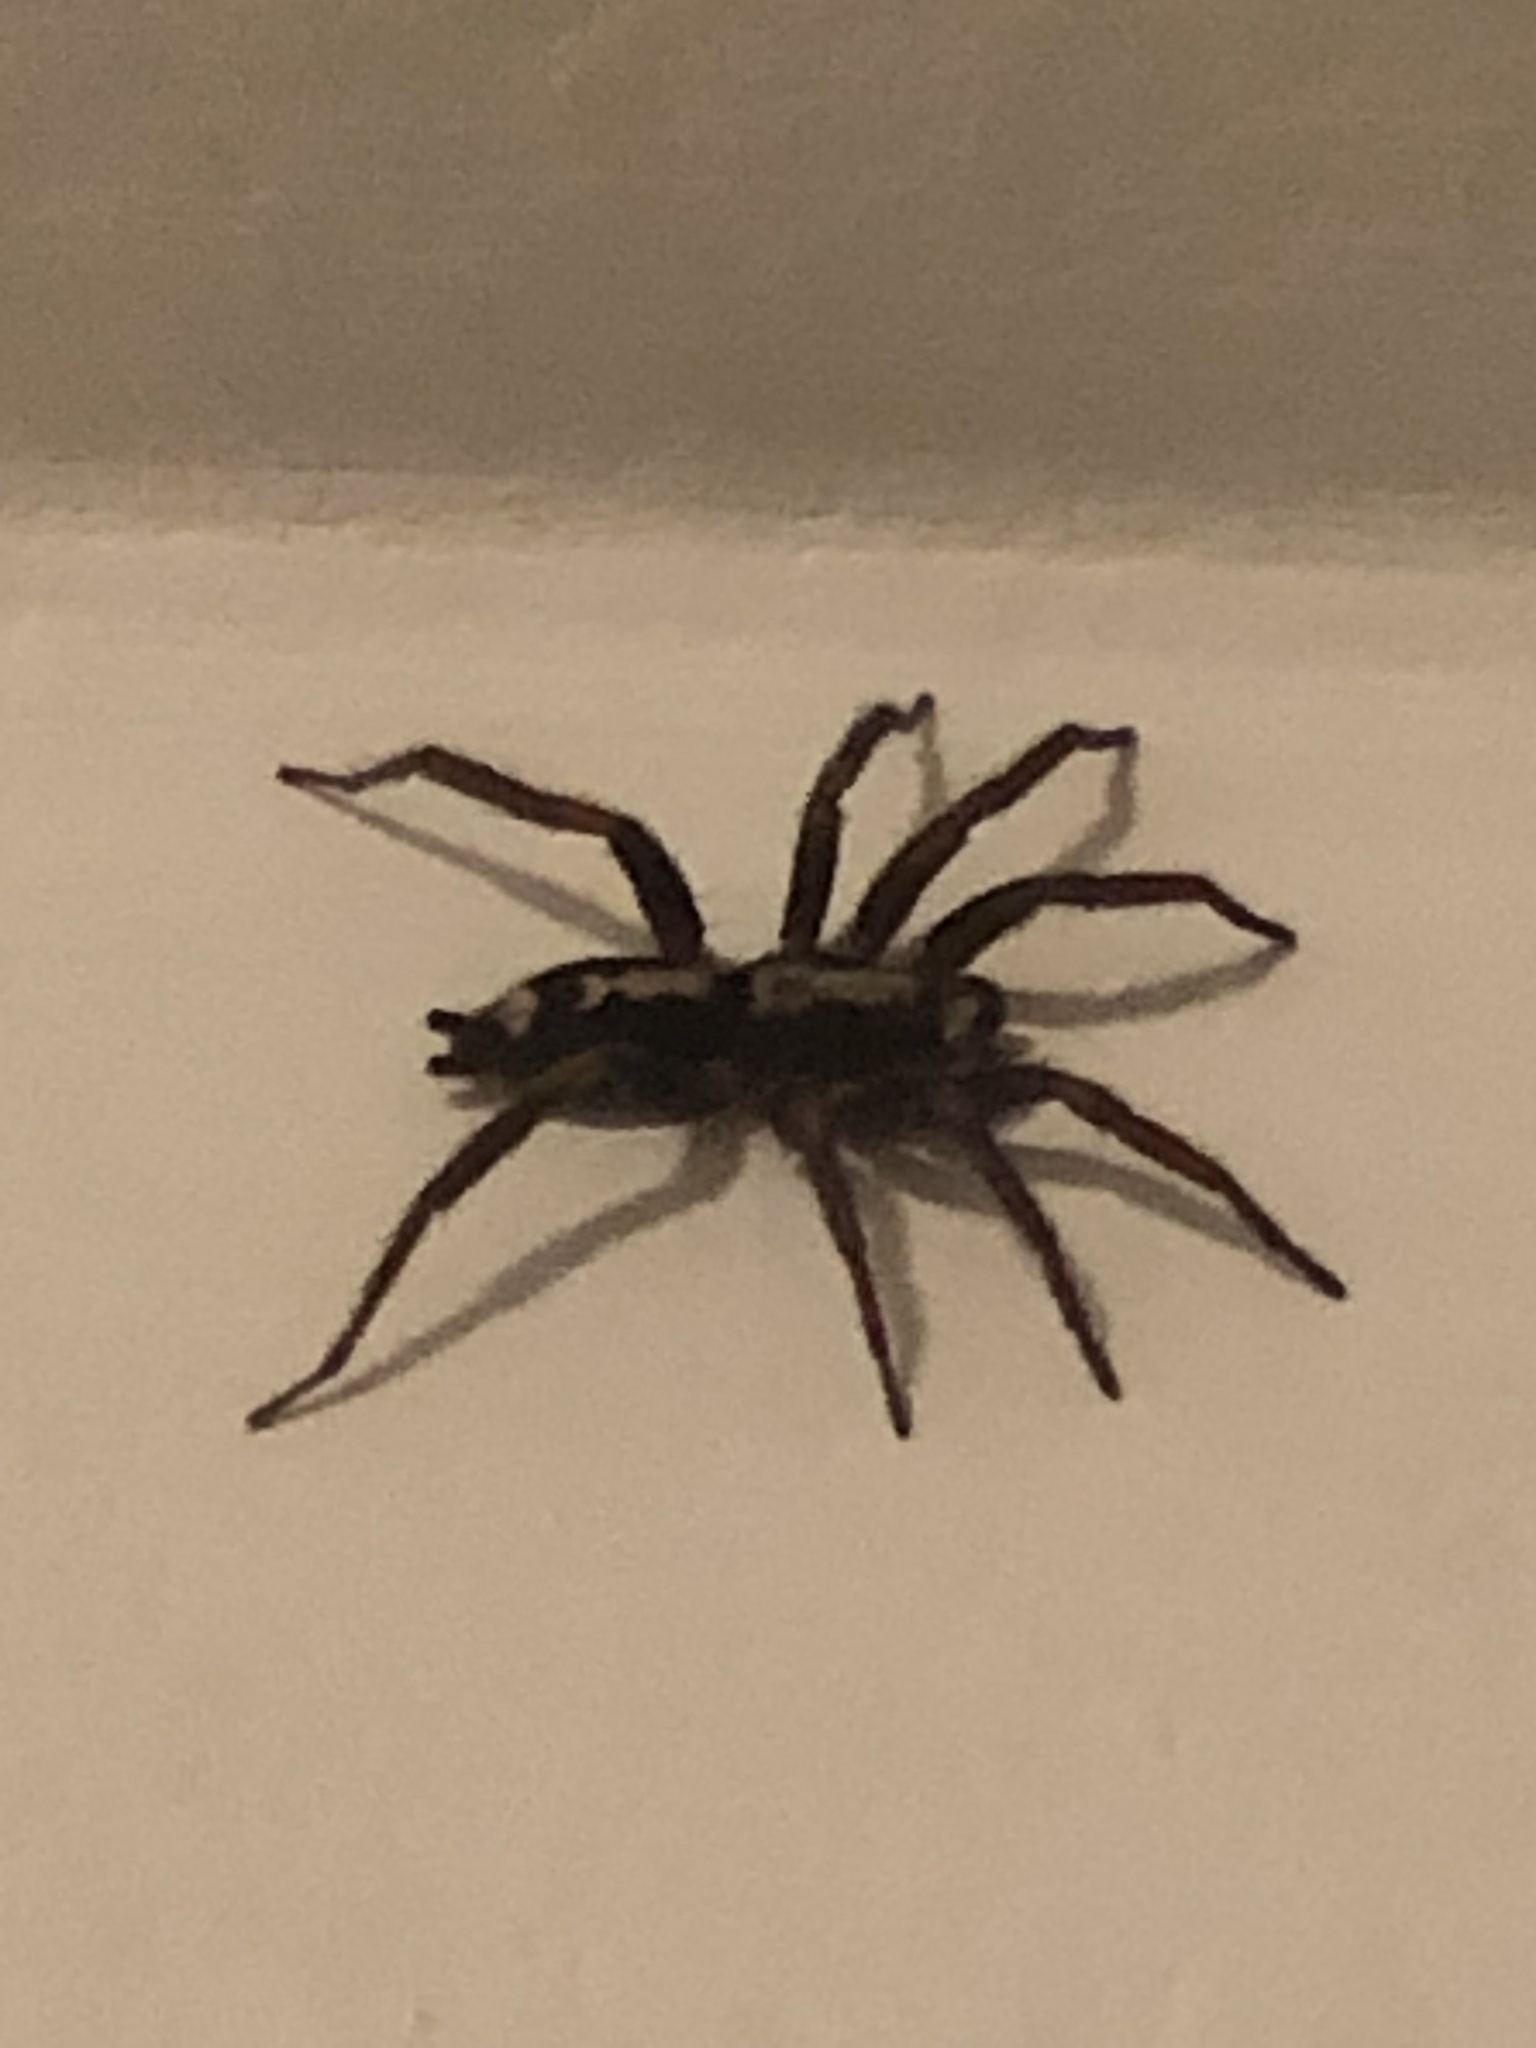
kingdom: Animalia
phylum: Arthropoda
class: Arachnida
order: Araneae
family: Gnaphosidae
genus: Herpyllus
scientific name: Herpyllus ecclesiasticus
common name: Eastern parson spider
